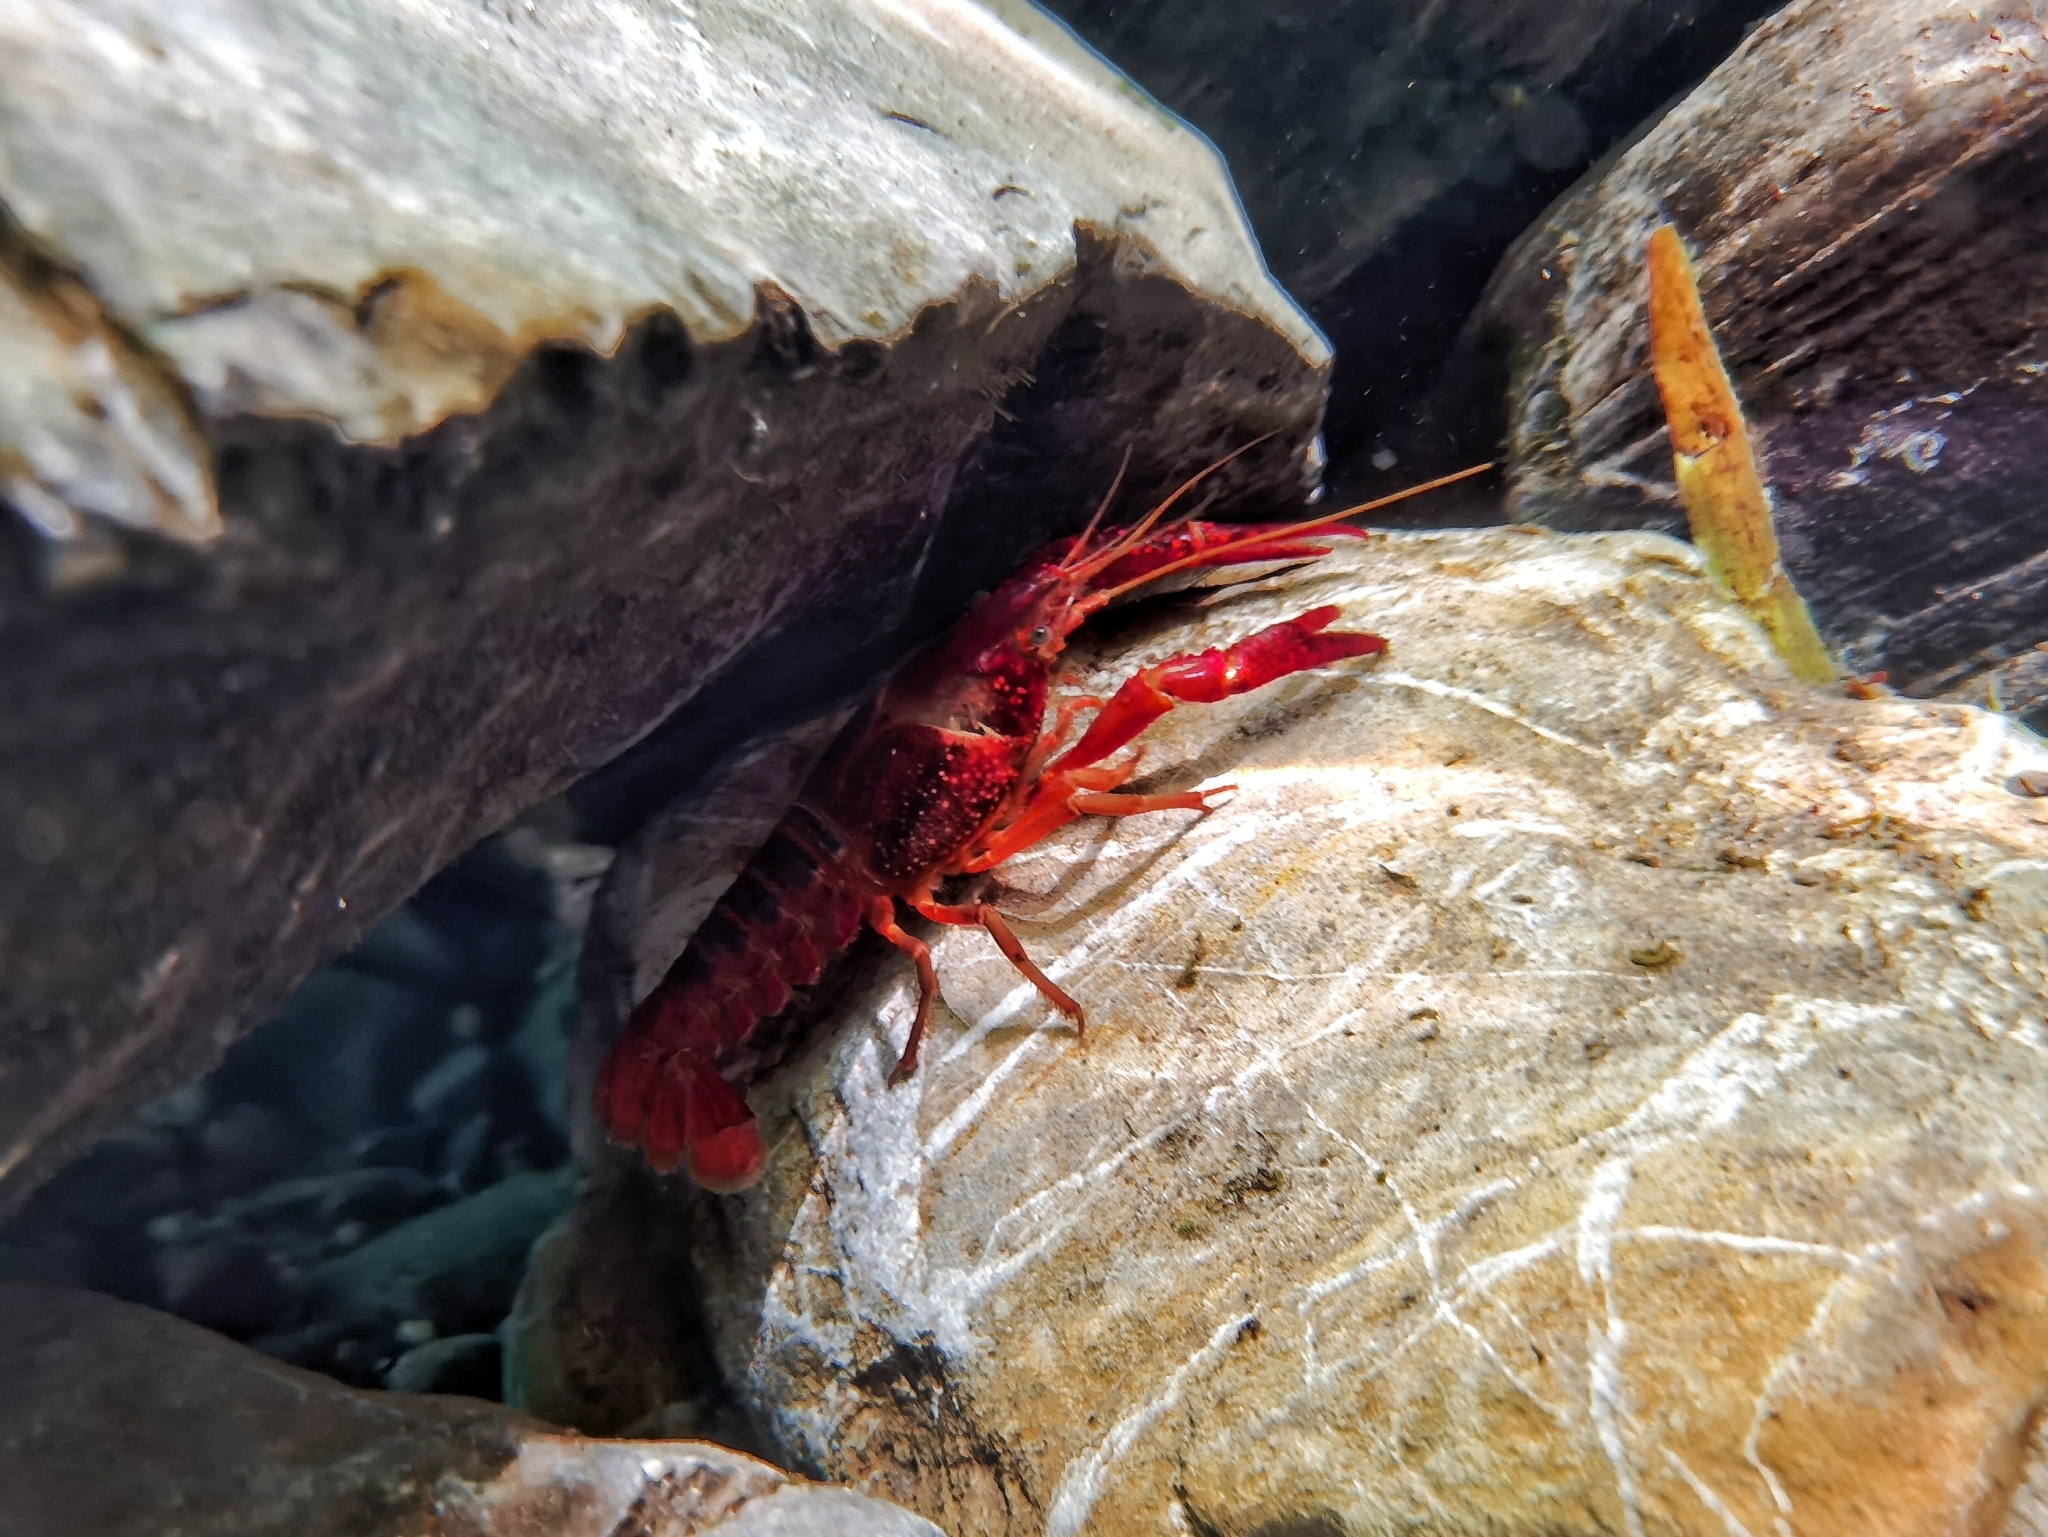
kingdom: Animalia
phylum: Arthropoda
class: Malacostraca
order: Decapoda
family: Cambaridae
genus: Procambarus
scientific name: Procambarus clarkii
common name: Red swamp crayfish
